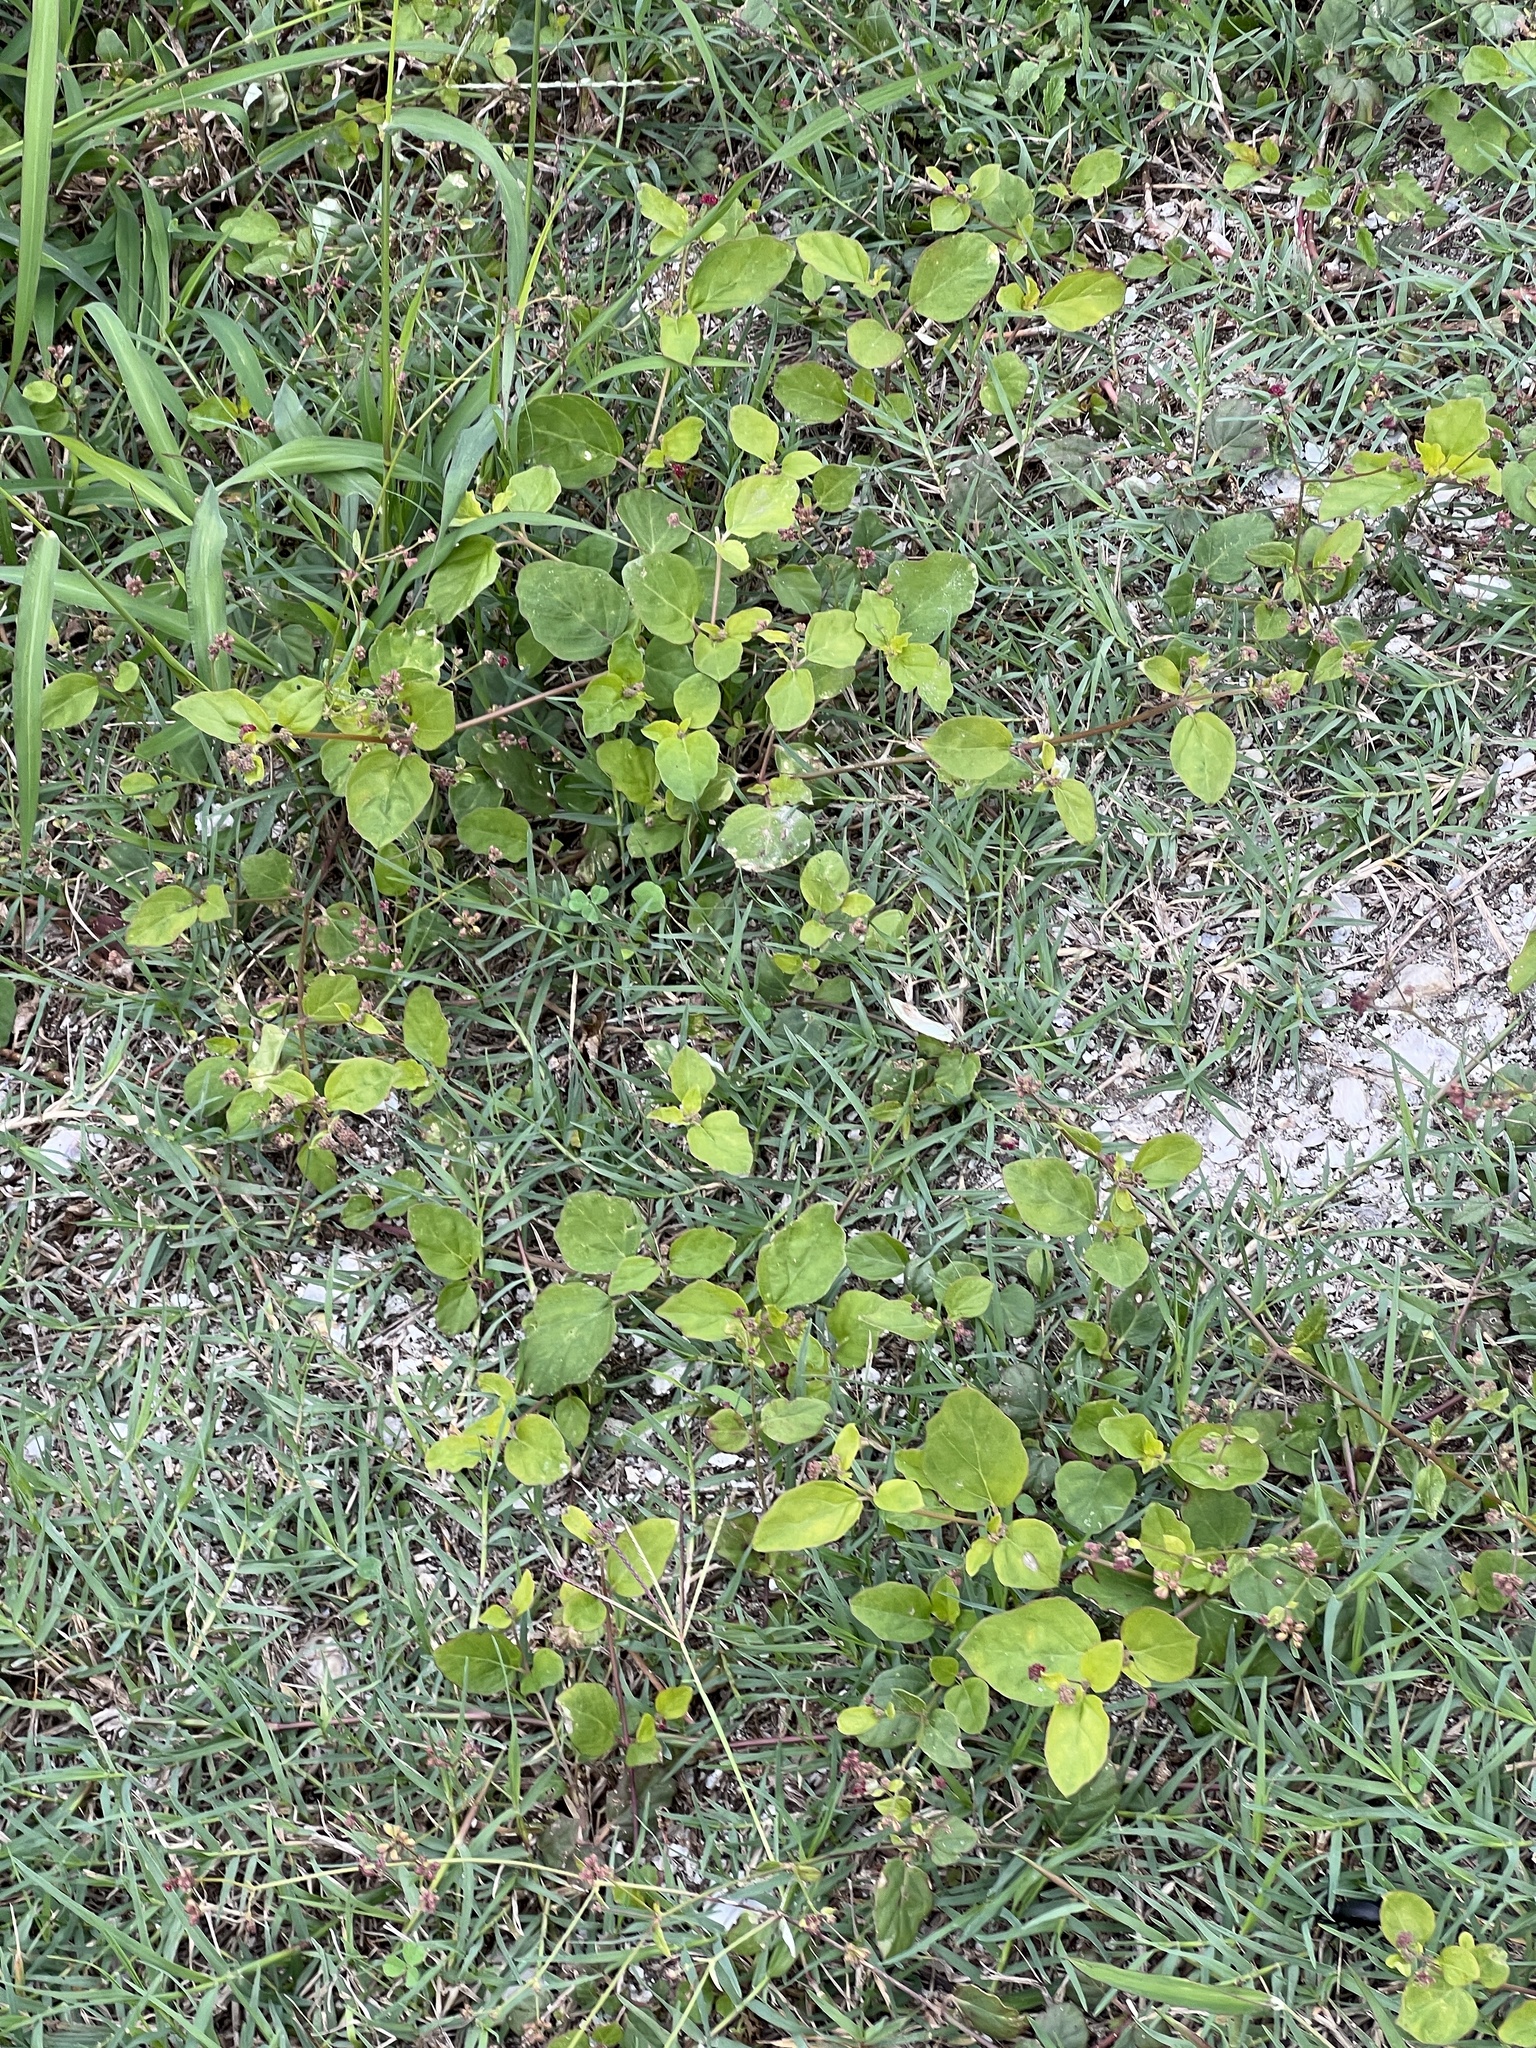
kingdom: Plantae
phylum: Tracheophyta
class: Magnoliopsida
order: Caryophyllales
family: Nyctaginaceae
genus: Boerhavia
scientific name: Boerhavia coccinea
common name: Scarlet spiderling
